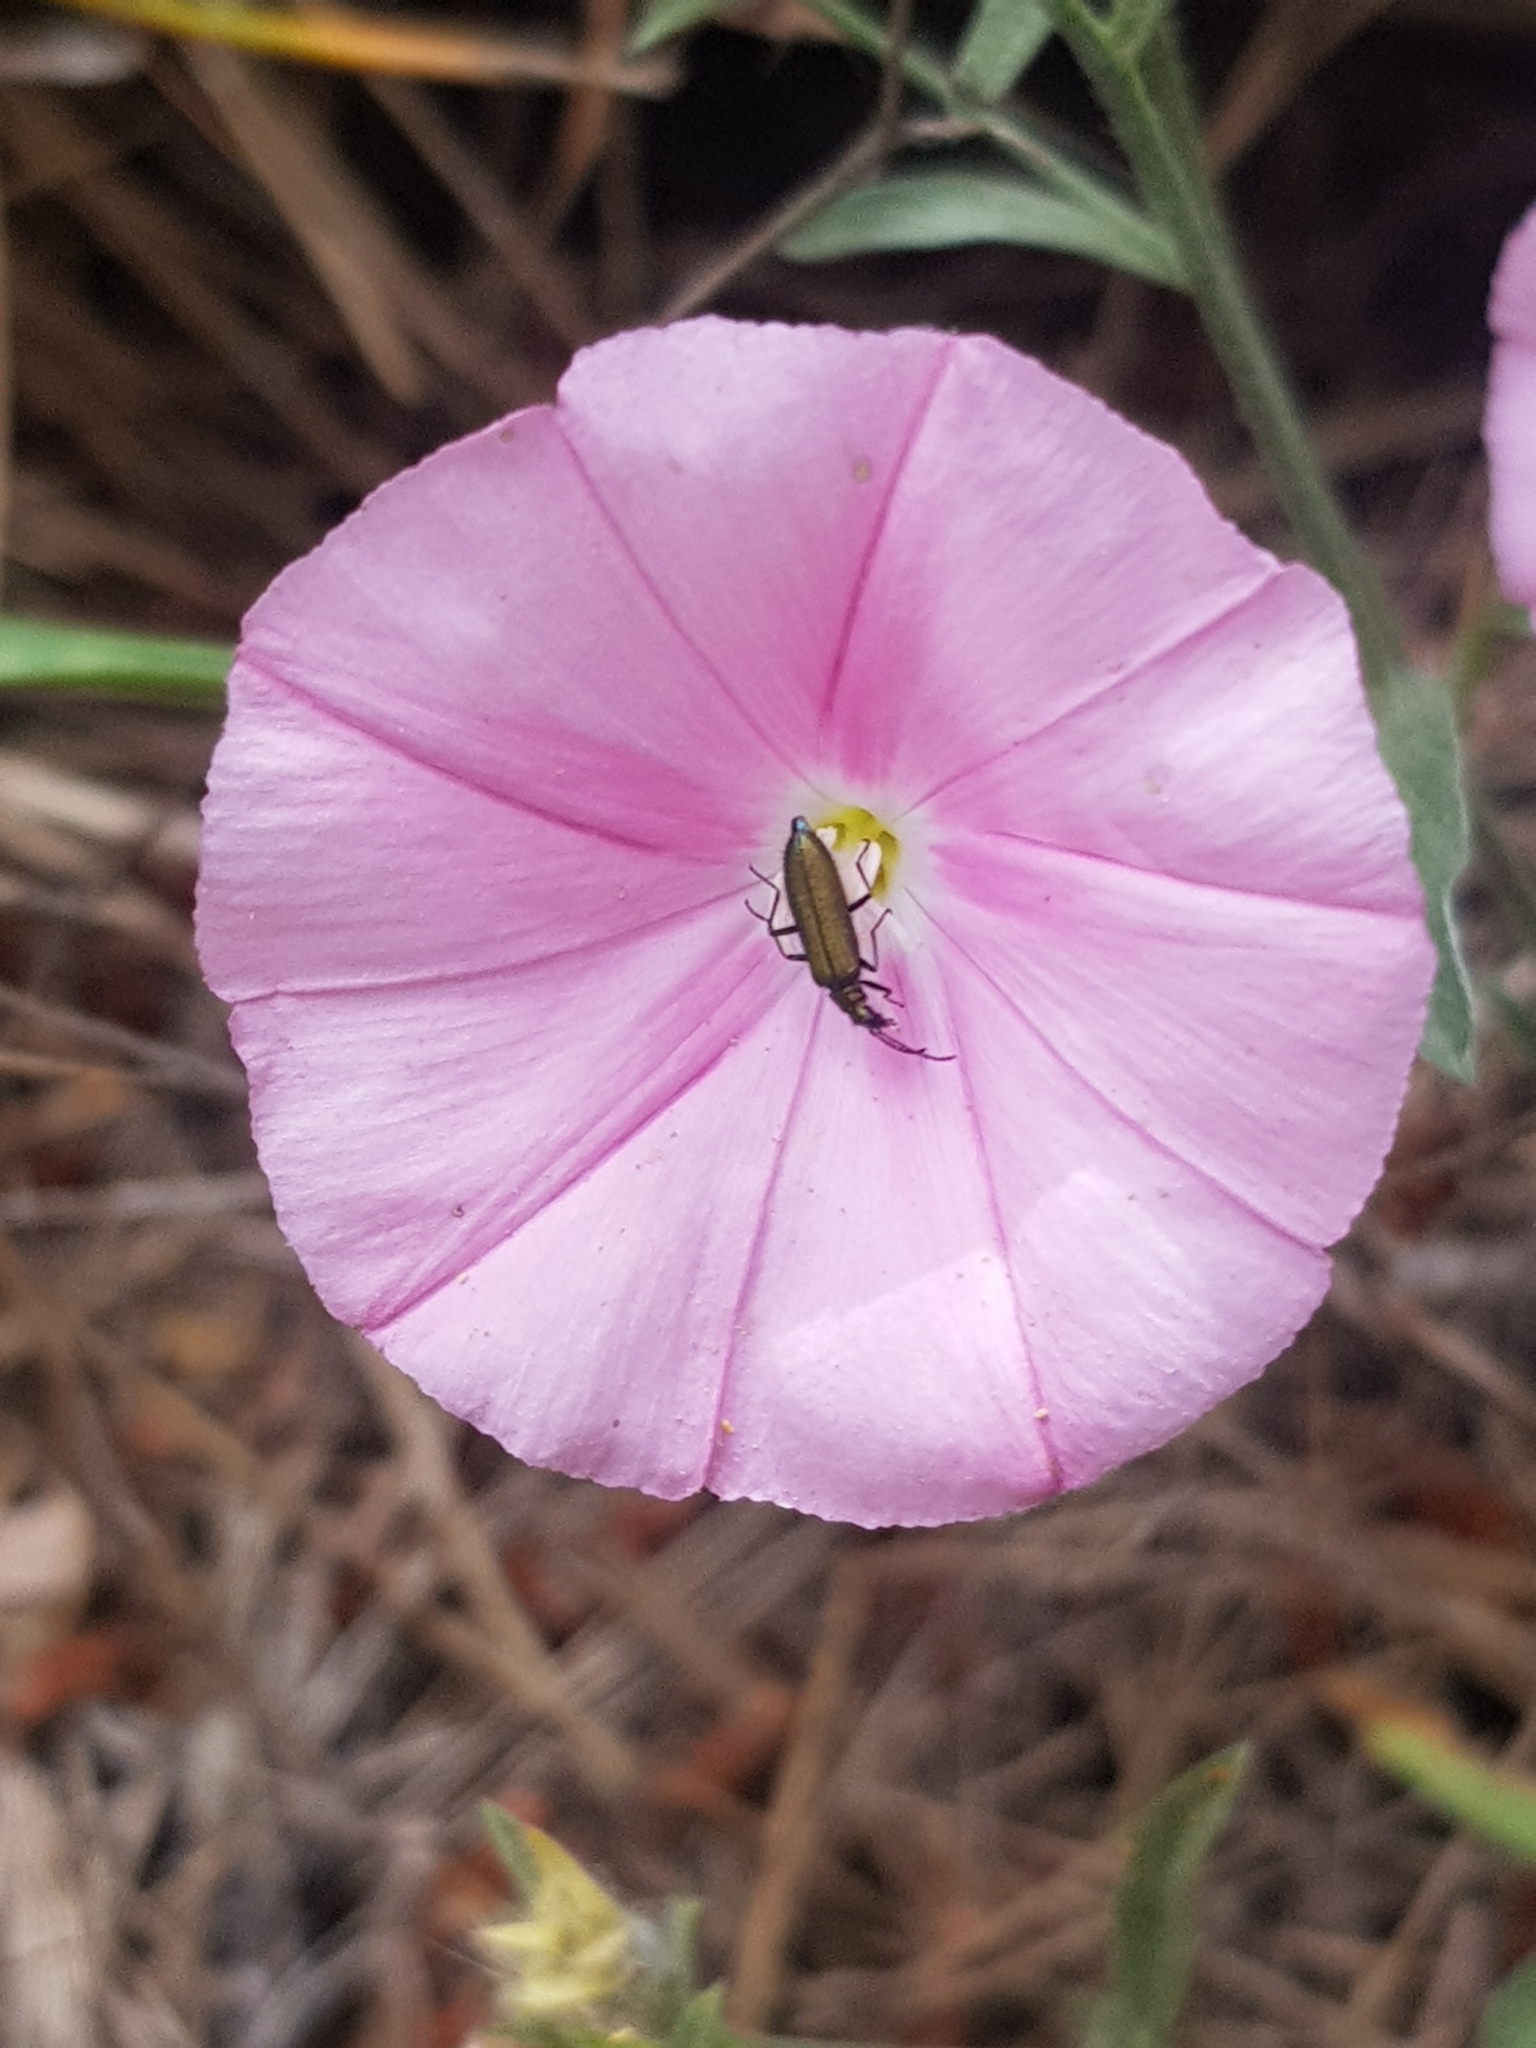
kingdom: Plantae
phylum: Tracheophyta
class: Magnoliopsida
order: Solanales
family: Convolvulaceae
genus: Convolvulus
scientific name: Convolvulus cantabrica
